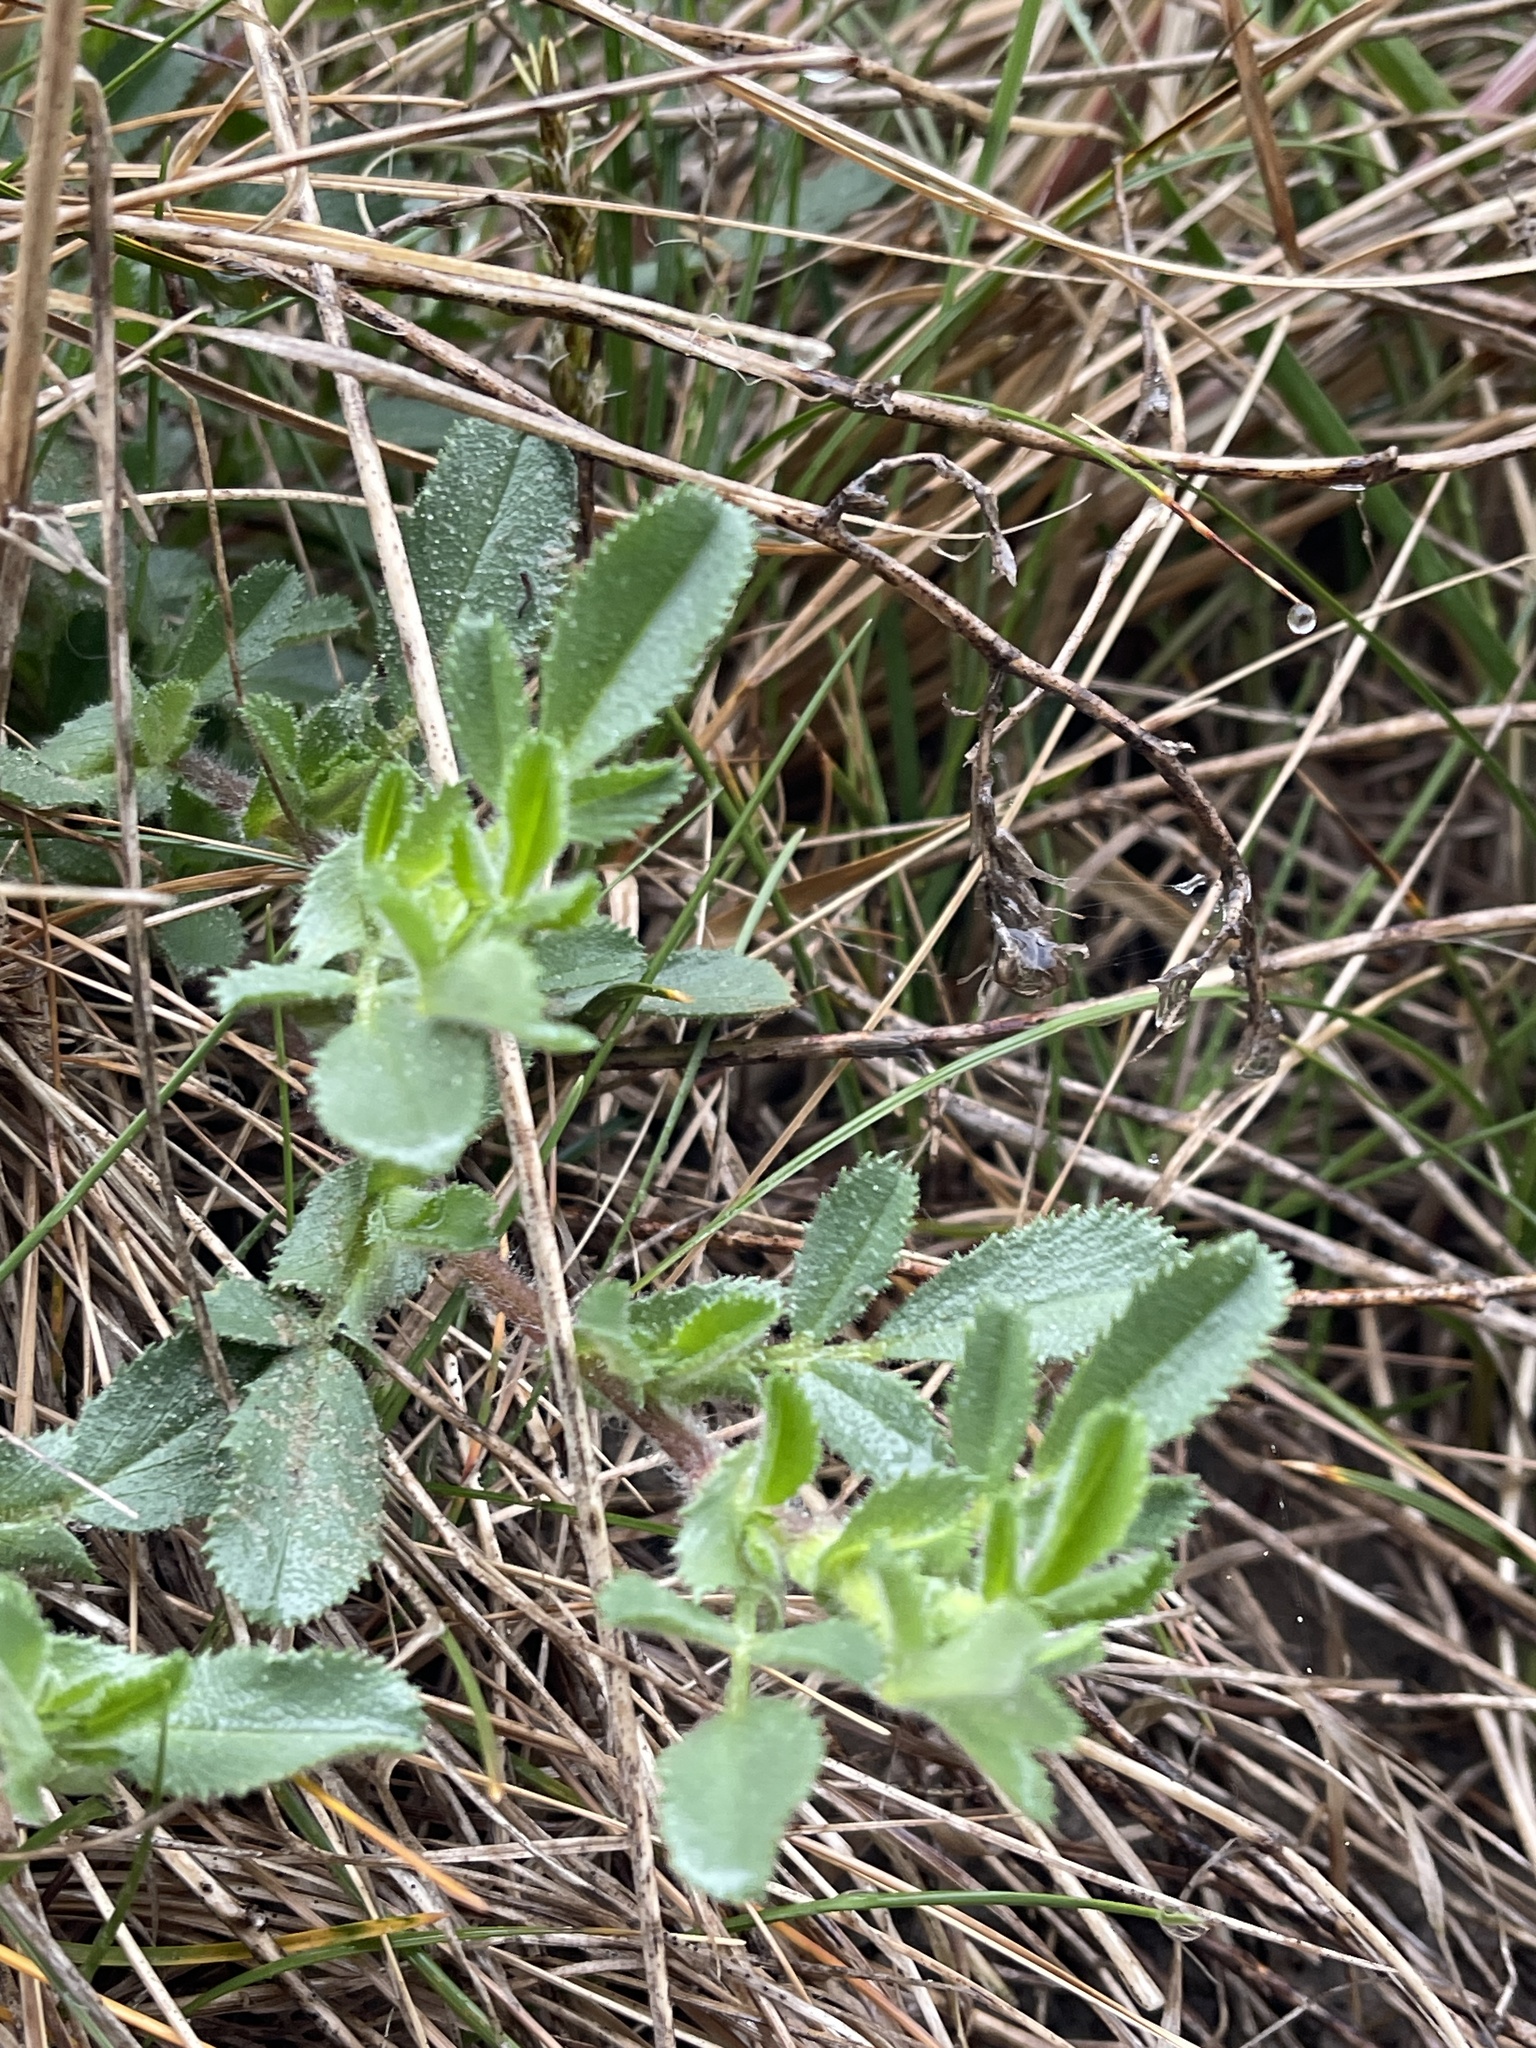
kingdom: Plantae
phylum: Tracheophyta
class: Magnoliopsida
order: Fabales
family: Fabaceae
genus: Ononis
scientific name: Ononis spinosa
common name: Spiny restharrow
